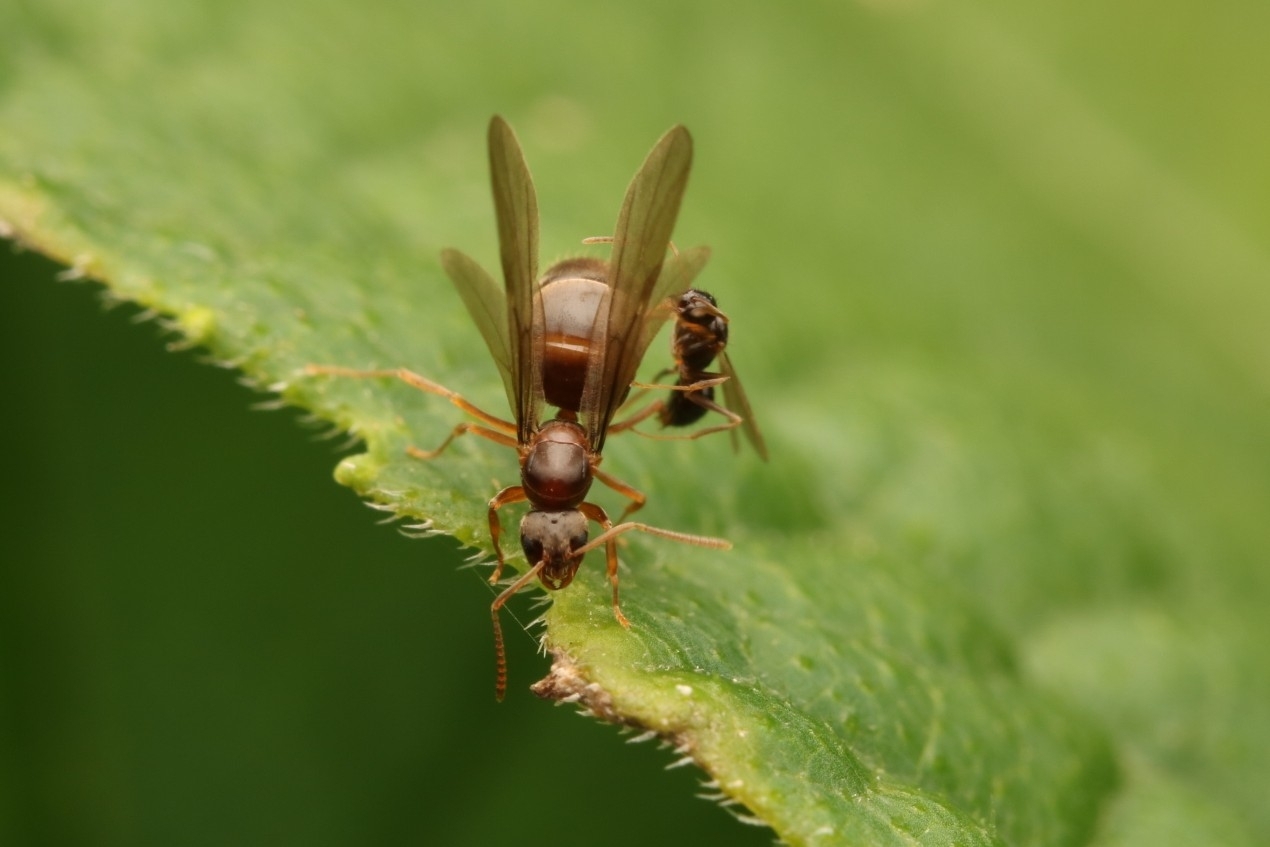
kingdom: Animalia
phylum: Arthropoda
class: Insecta
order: Hymenoptera
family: Formicidae
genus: Lasius
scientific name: Lasius americanus
